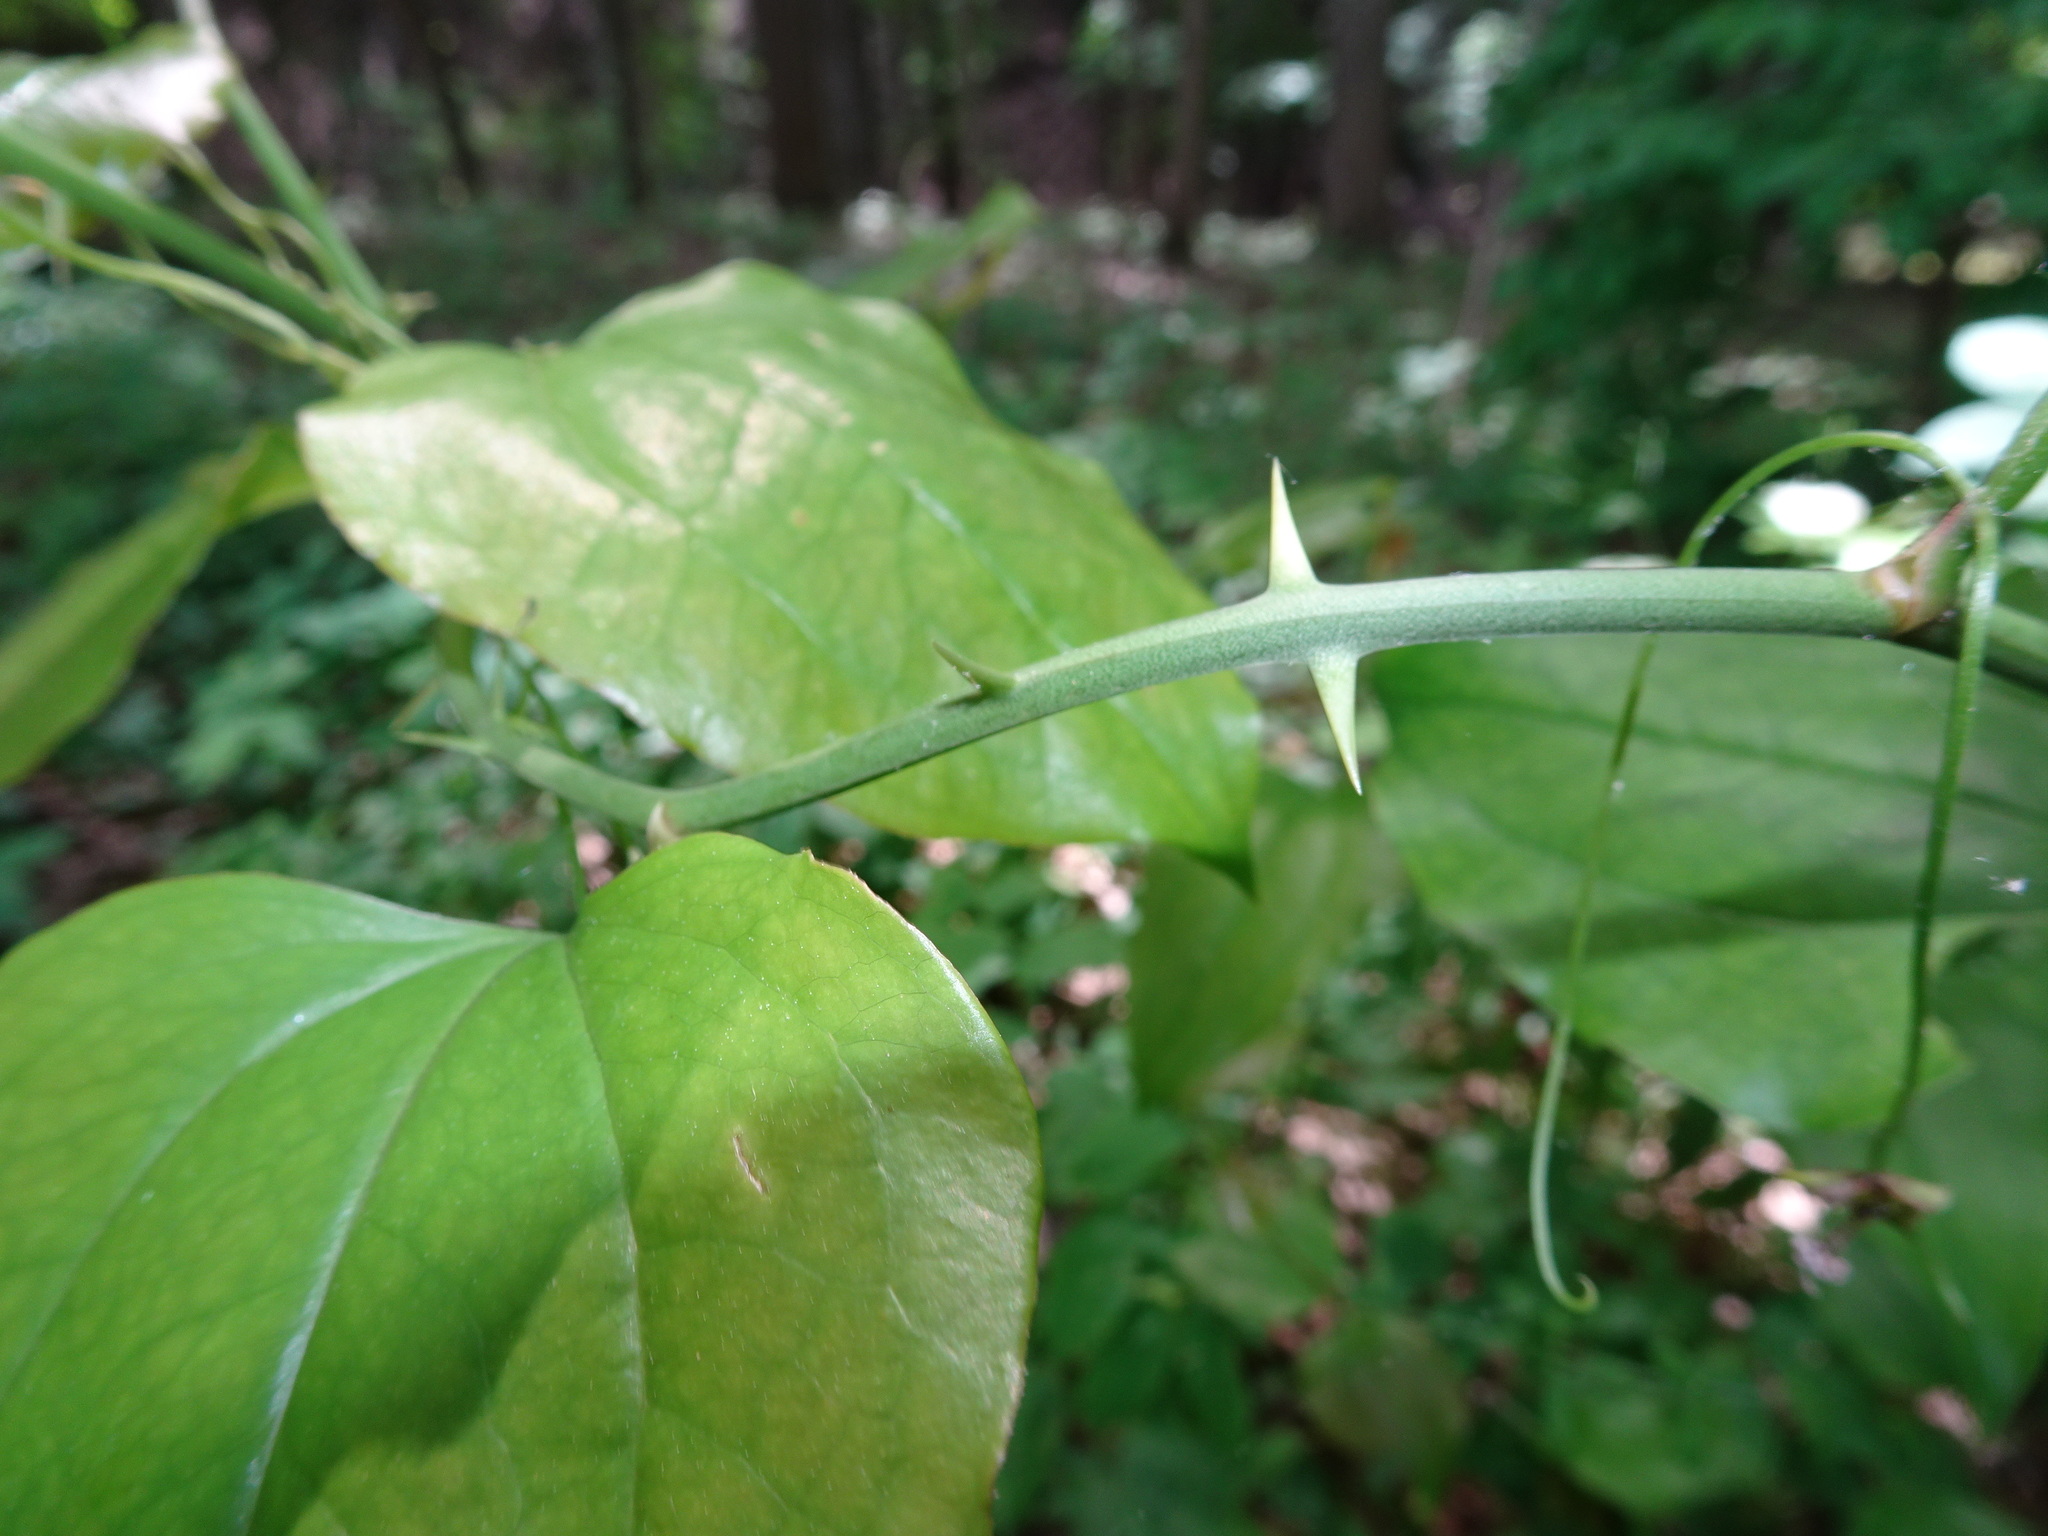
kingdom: Plantae
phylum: Tracheophyta
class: Liliopsida
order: Liliales
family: Smilacaceae
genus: Smilax
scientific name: Smilax rotundifolia
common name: Bullbriar
